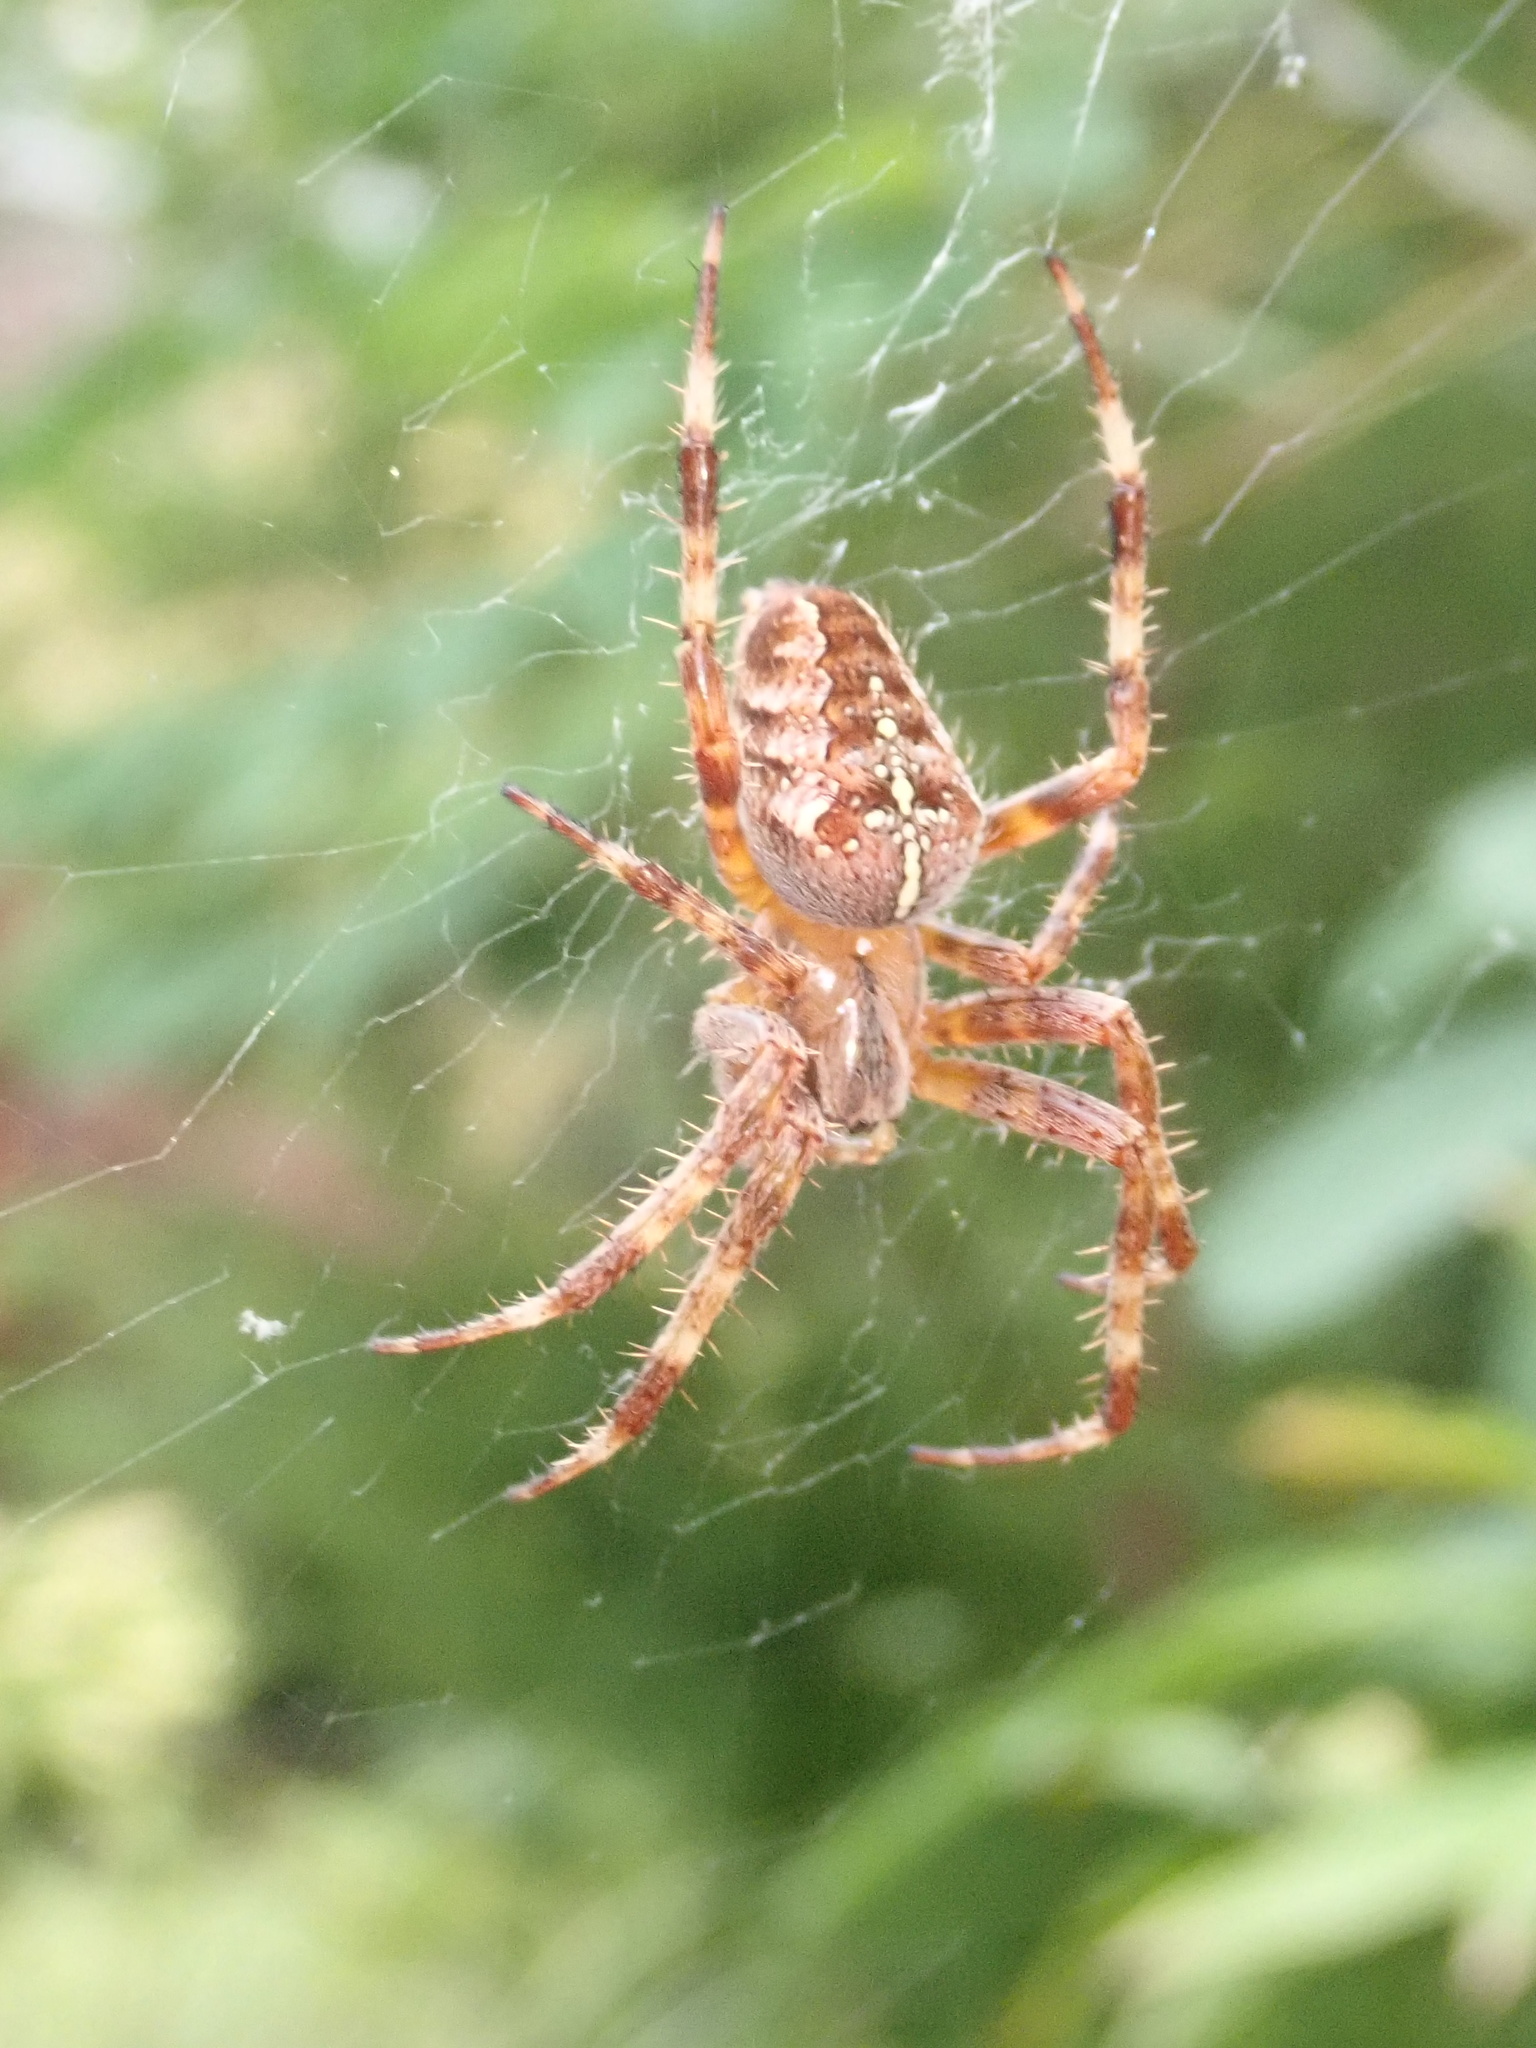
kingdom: Animalia
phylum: Arthropoda
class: Arachnida
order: Araneae
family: Araneidae
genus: Araneus
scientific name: Araneus diadematus
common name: Cross orbweaver
